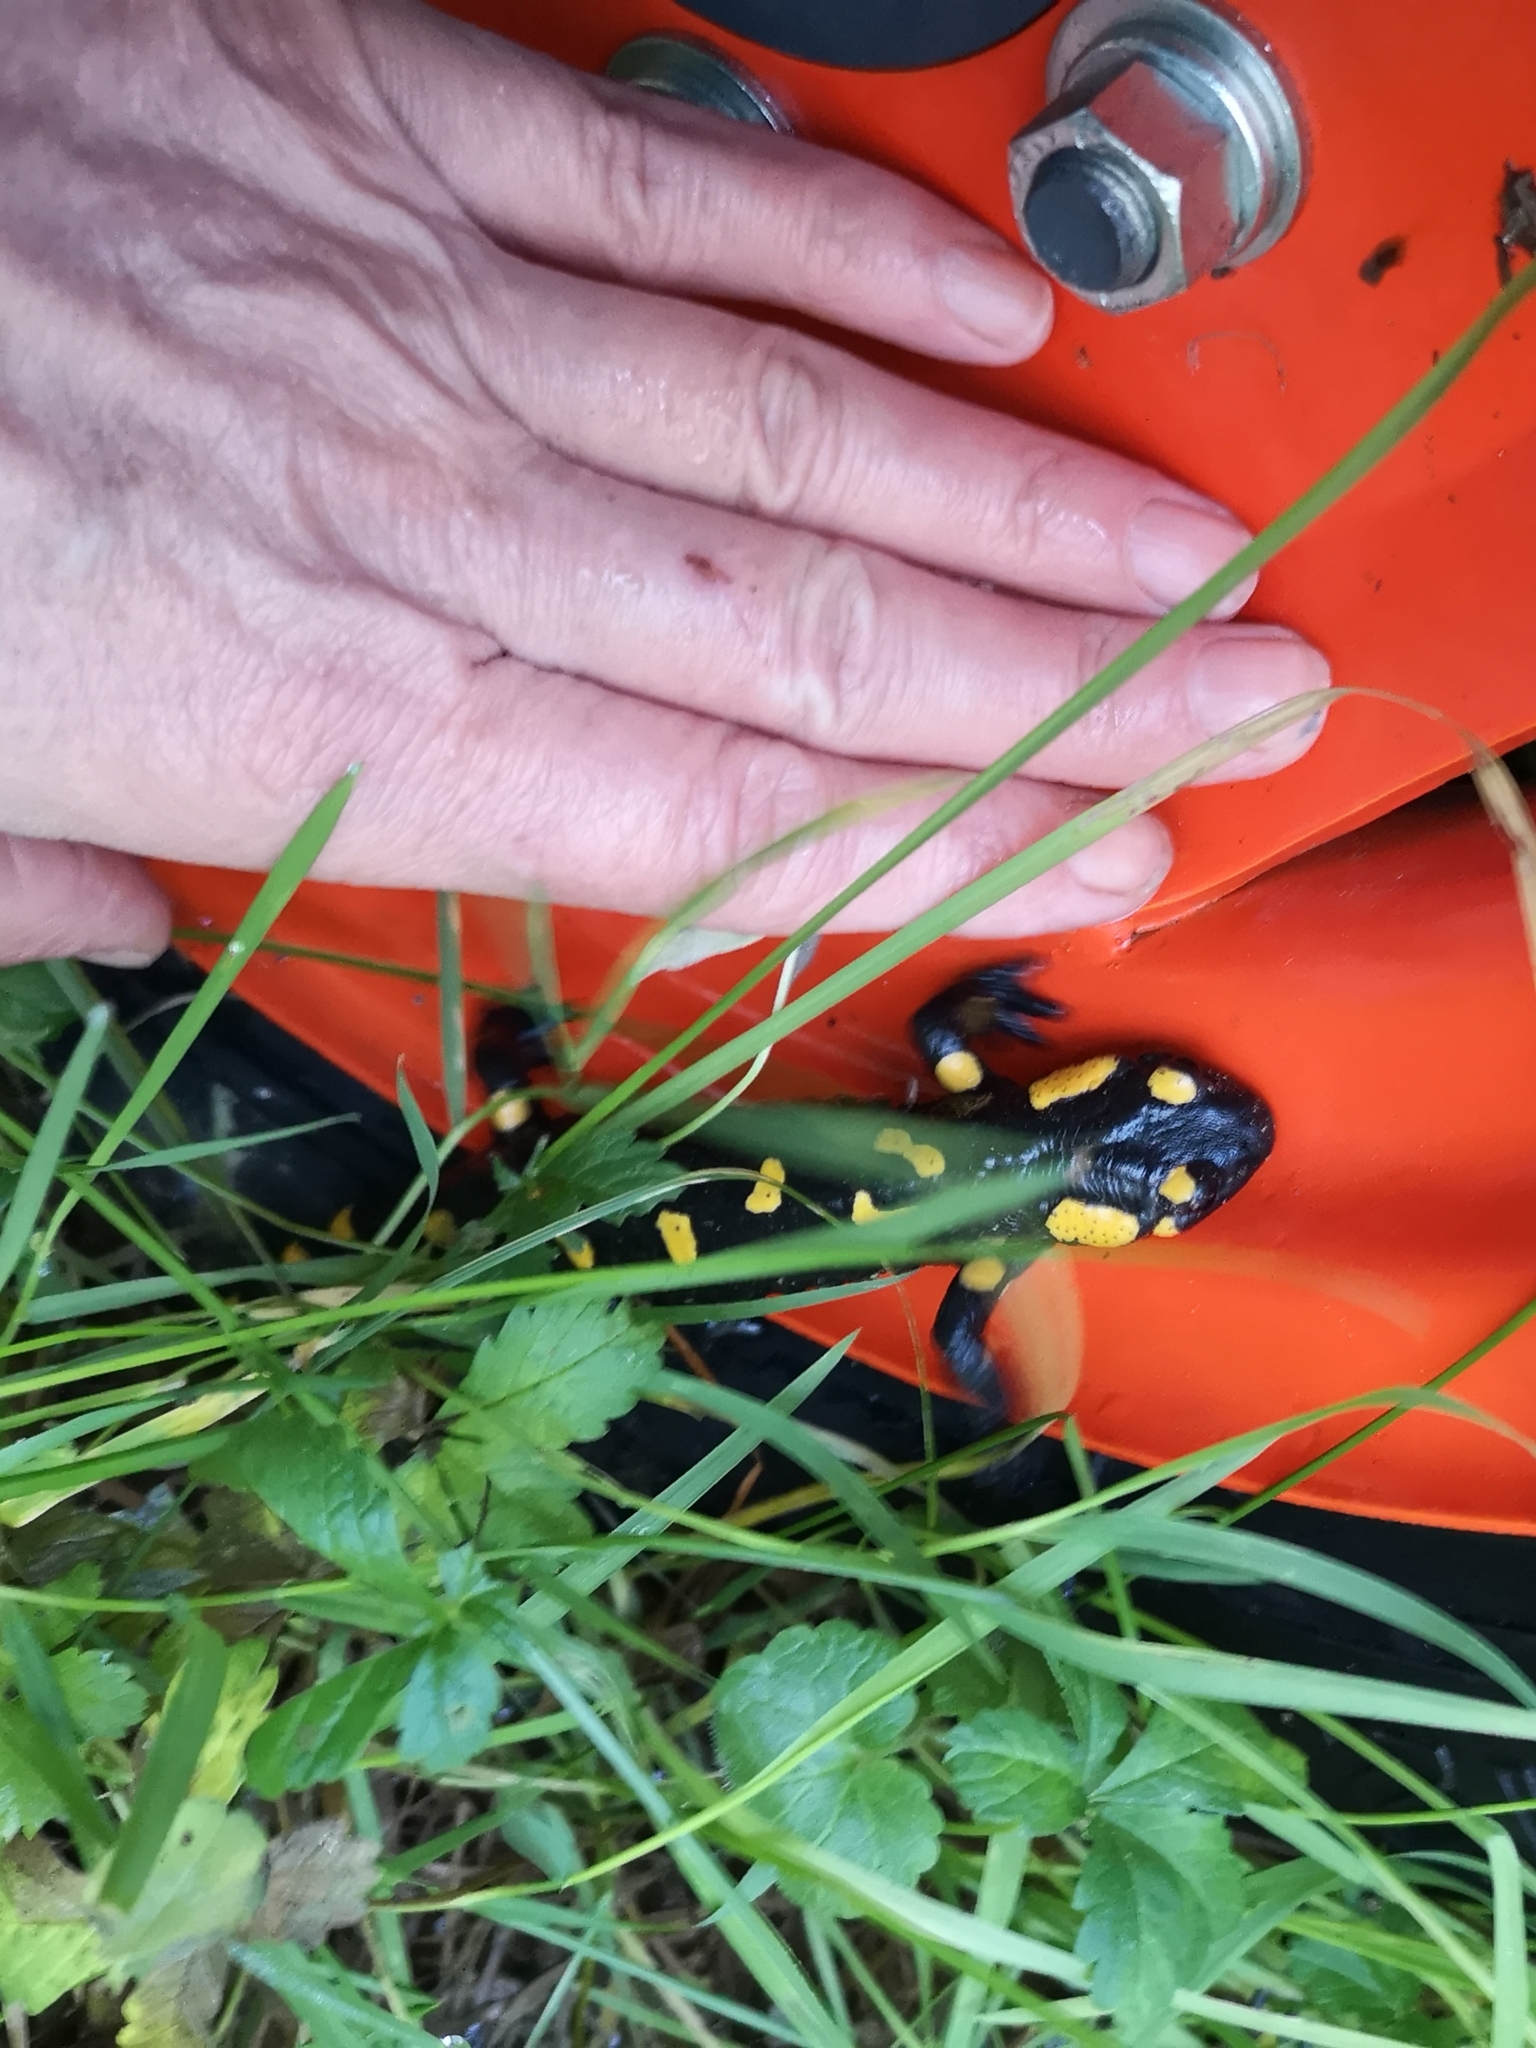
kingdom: Animalia
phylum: Chordata
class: Amphibia
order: Caudata
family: Salamandridae
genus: Salamandra
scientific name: Salamandra salamandra
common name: Fire salamander
